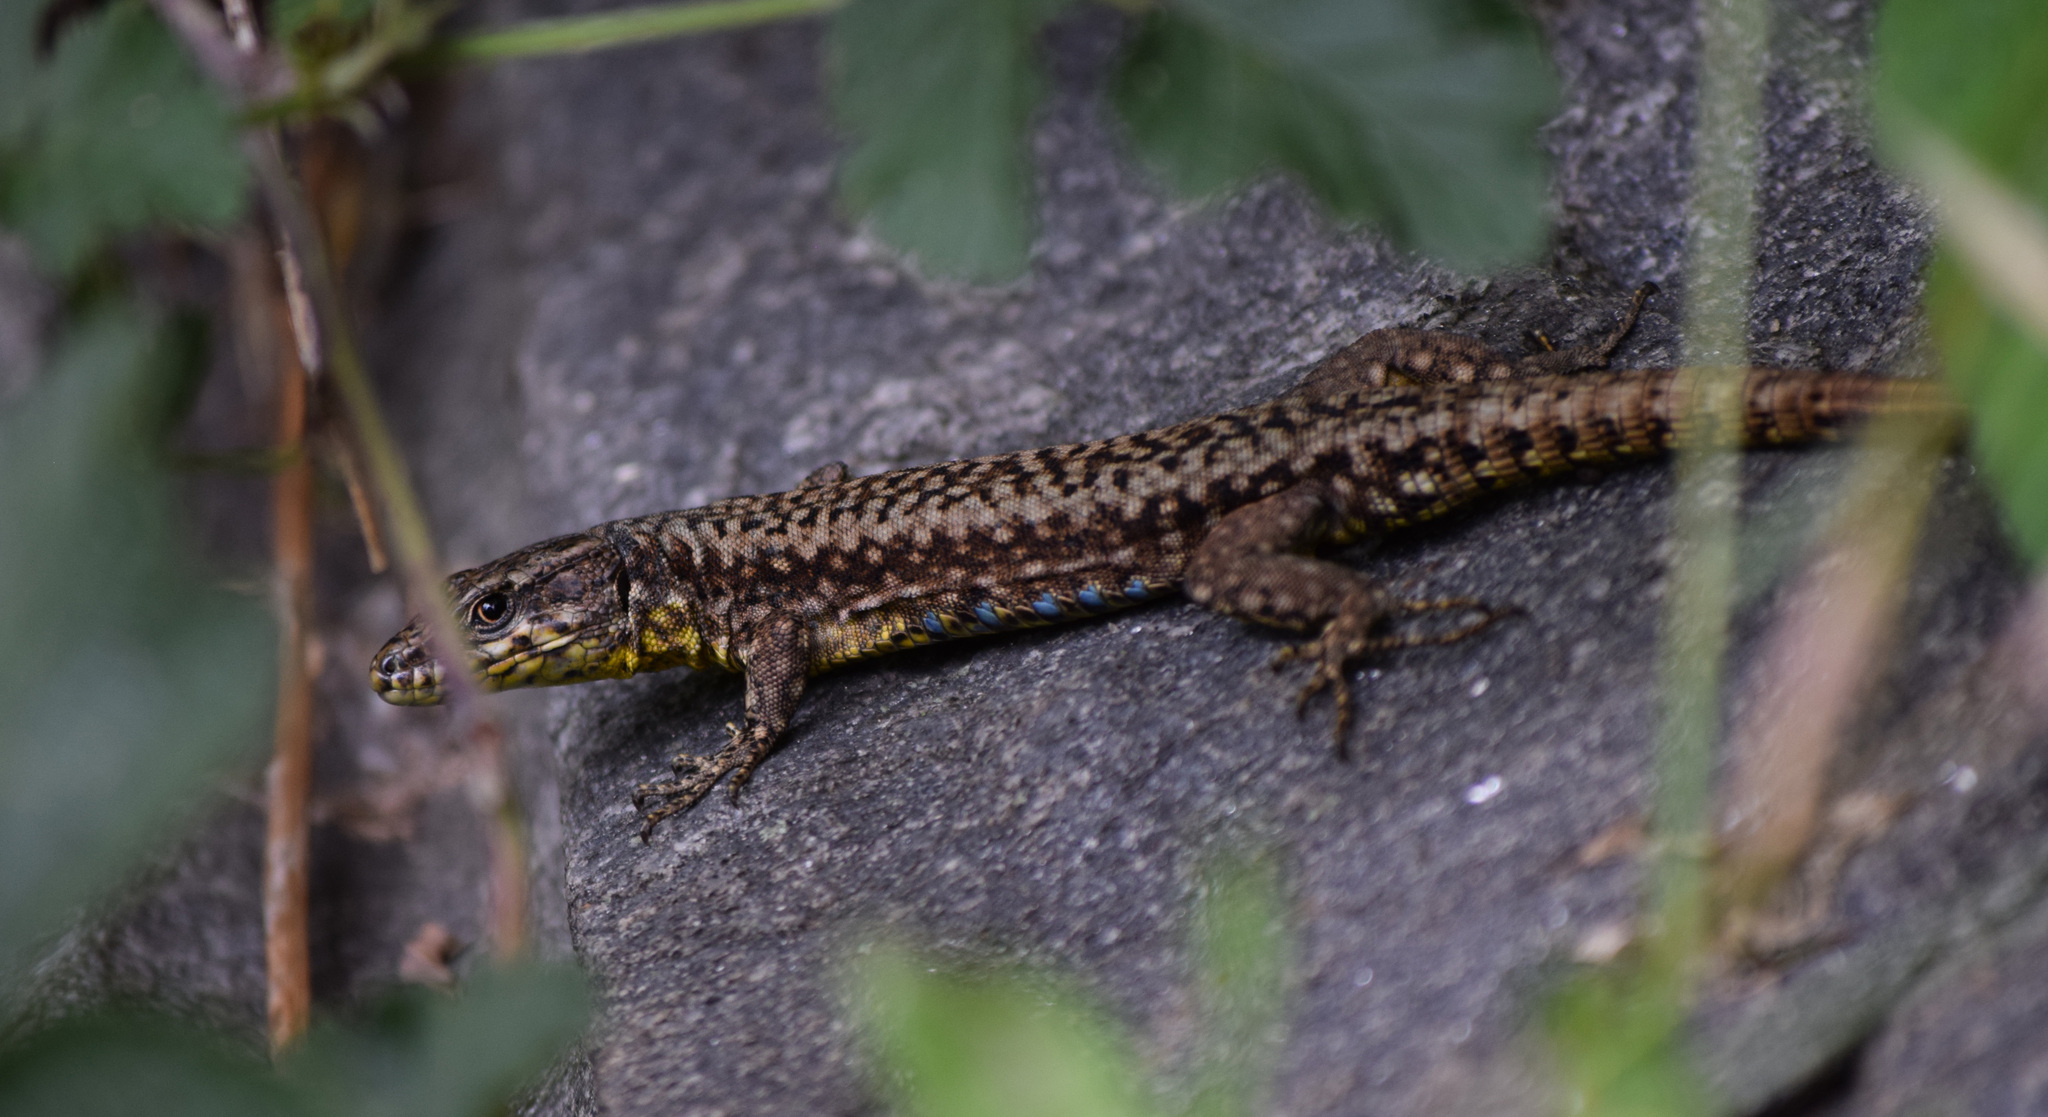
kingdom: Animalia
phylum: Chordata
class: Squamata
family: Lacertidae
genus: Podarcis
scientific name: Podarcis muralis
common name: Common wall lizard
